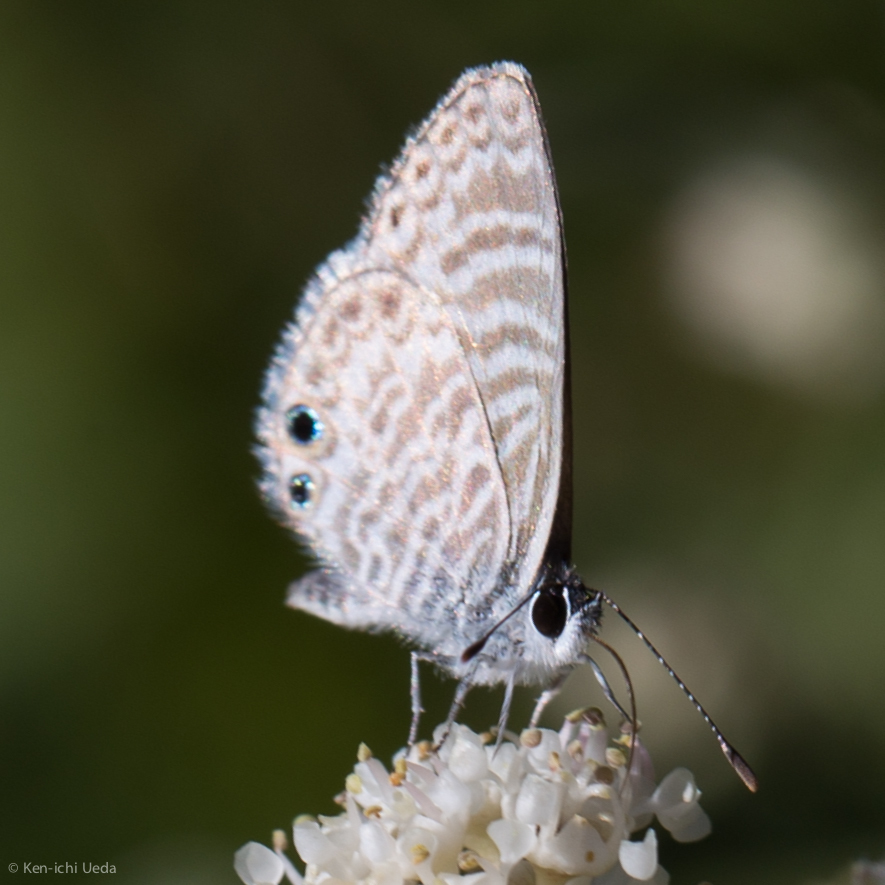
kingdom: Animalia
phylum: Arthropoda
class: Insecta
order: Lepidoptera
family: Lycaenidae
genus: Leptotes
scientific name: Leptotes marina
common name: Marine blue
